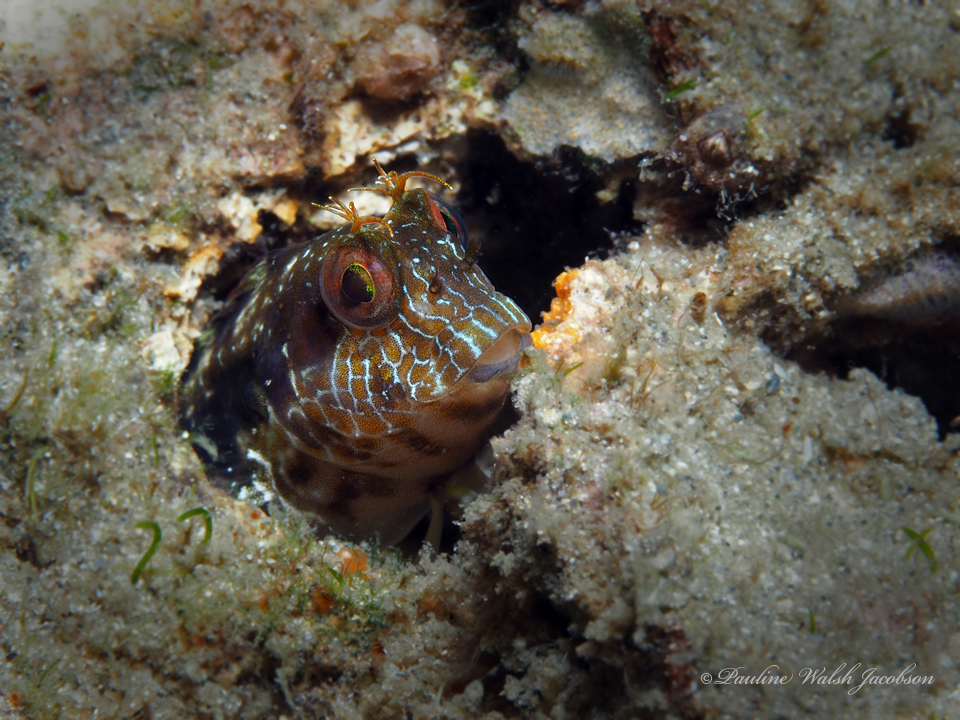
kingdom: Animalia
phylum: Chordata
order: Perciformes
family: Blenniidae
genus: Parablennius
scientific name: Parablennius marmoreus
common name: Seaweed blenny
